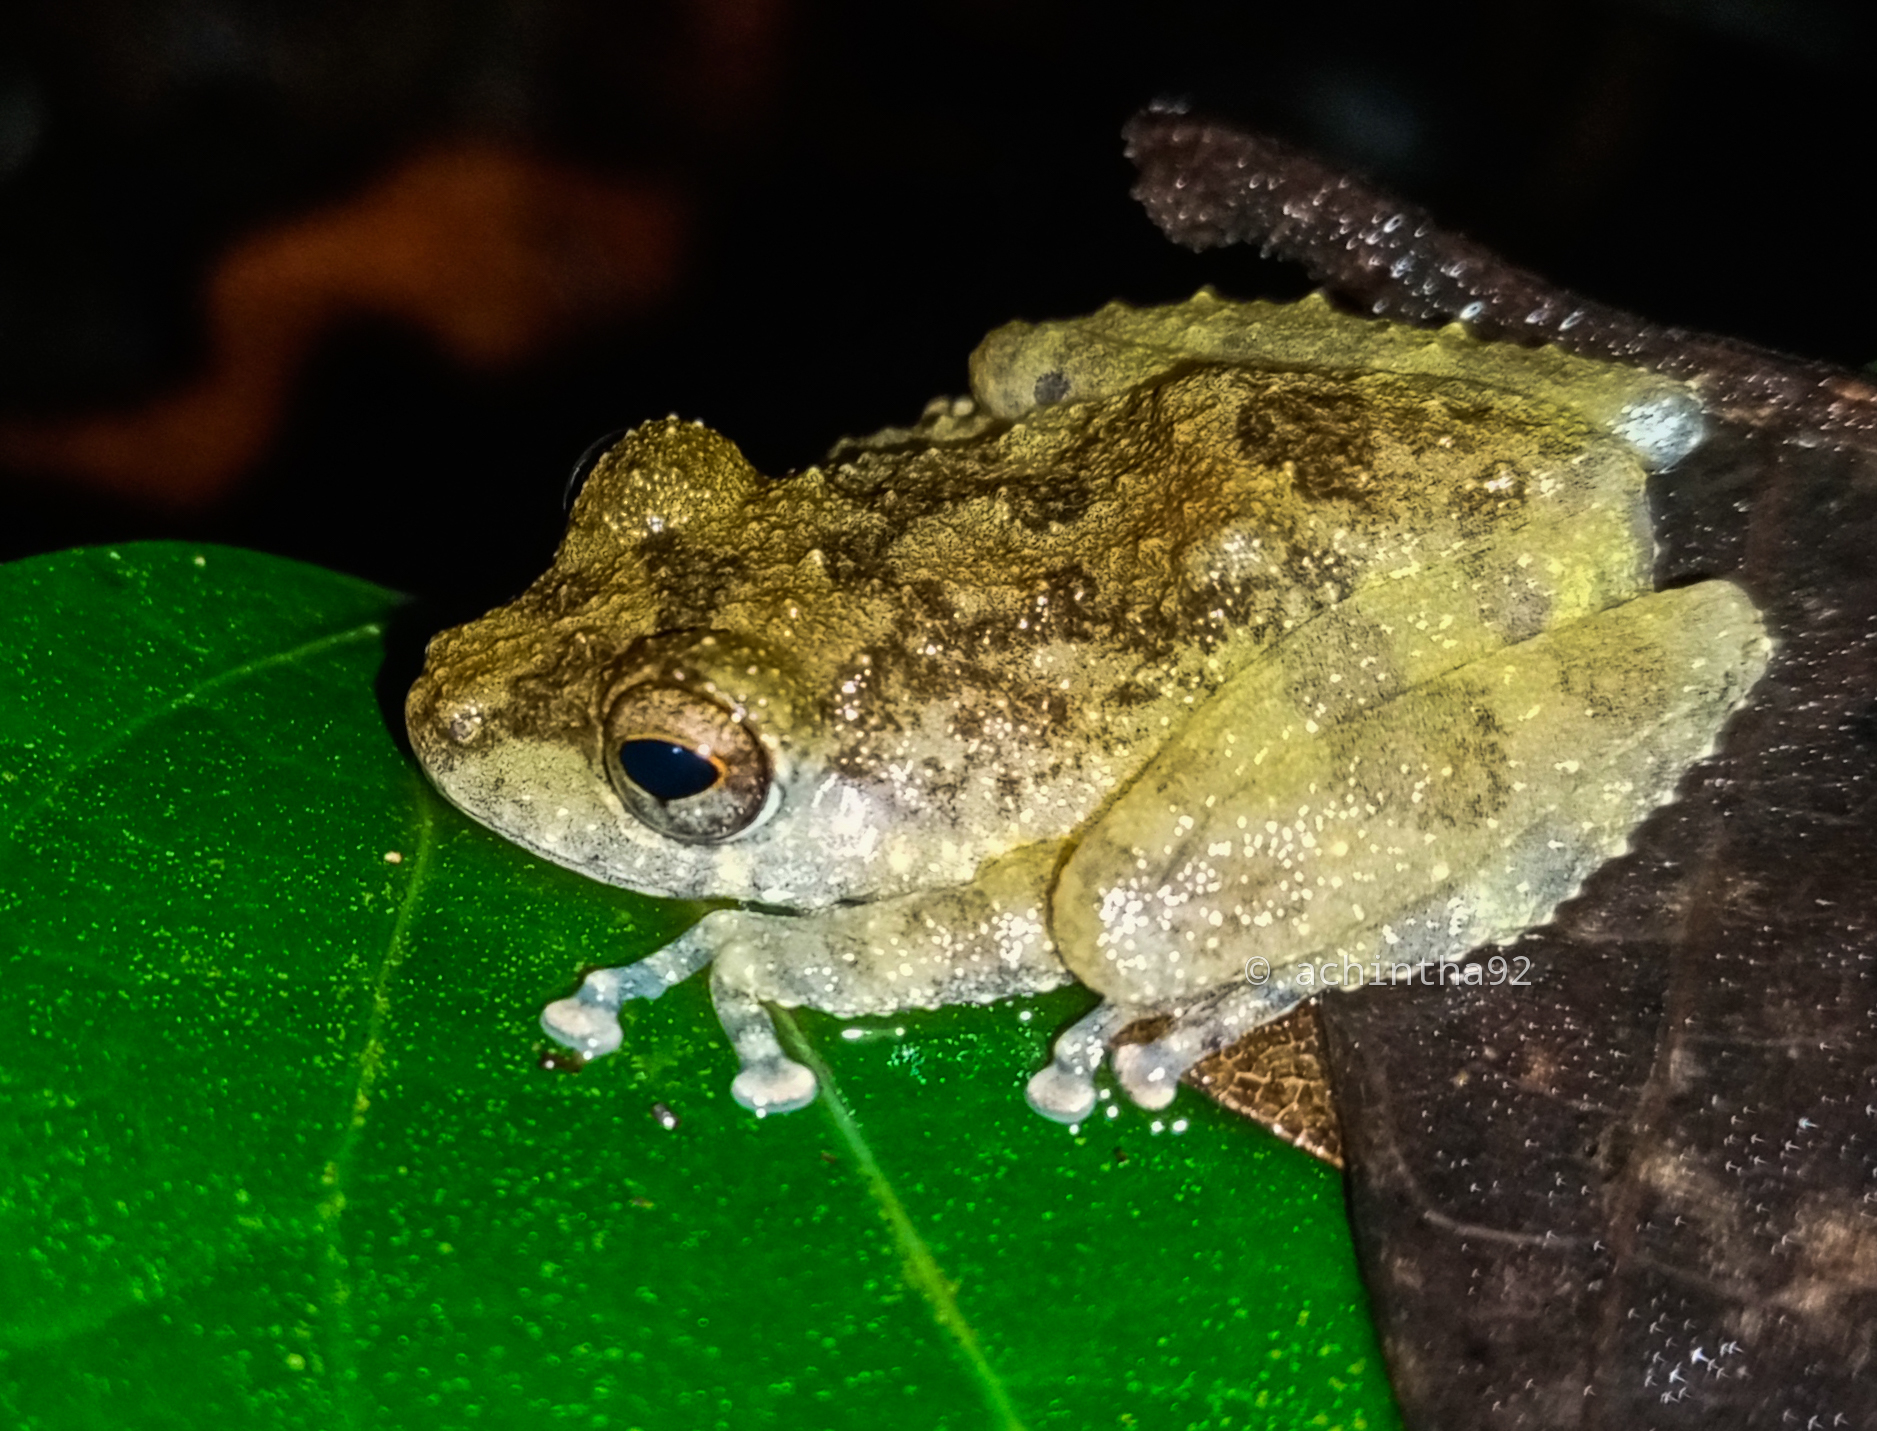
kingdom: Animalia
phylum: Chordata
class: Amphibia
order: Anura
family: Rhacophoridae
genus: Pseudophilautus
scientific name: Pseudophilautus fergusonianus
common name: Ferguson's shrub frog
